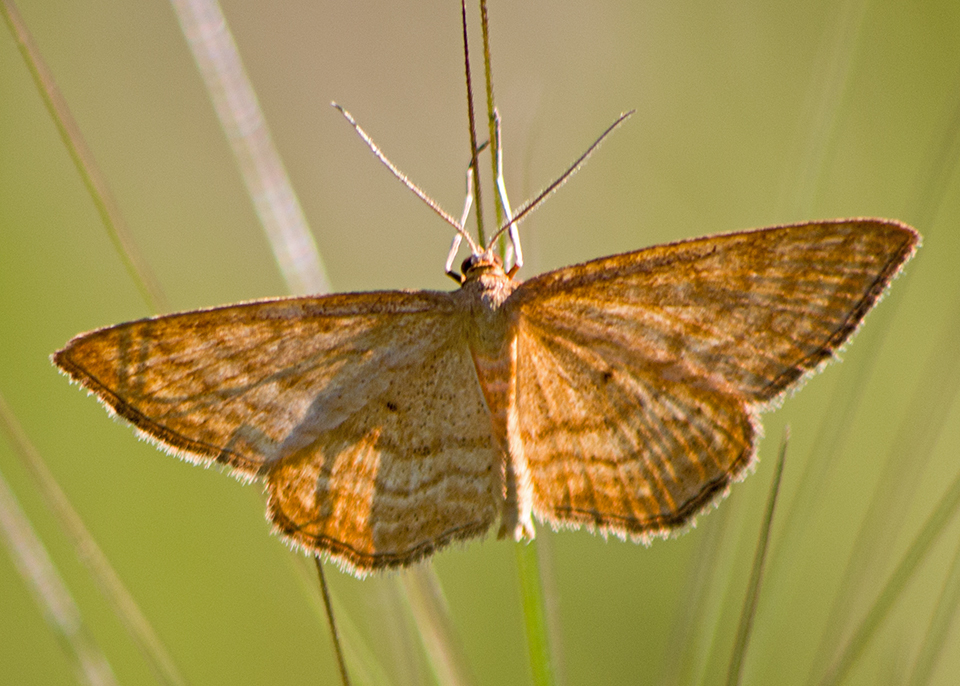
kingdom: Animalia
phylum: Arthropoda
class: Insecta
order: Lepidoptera
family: Geometridae
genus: Idaea
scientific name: Idaea ochrata
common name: Bright wave
